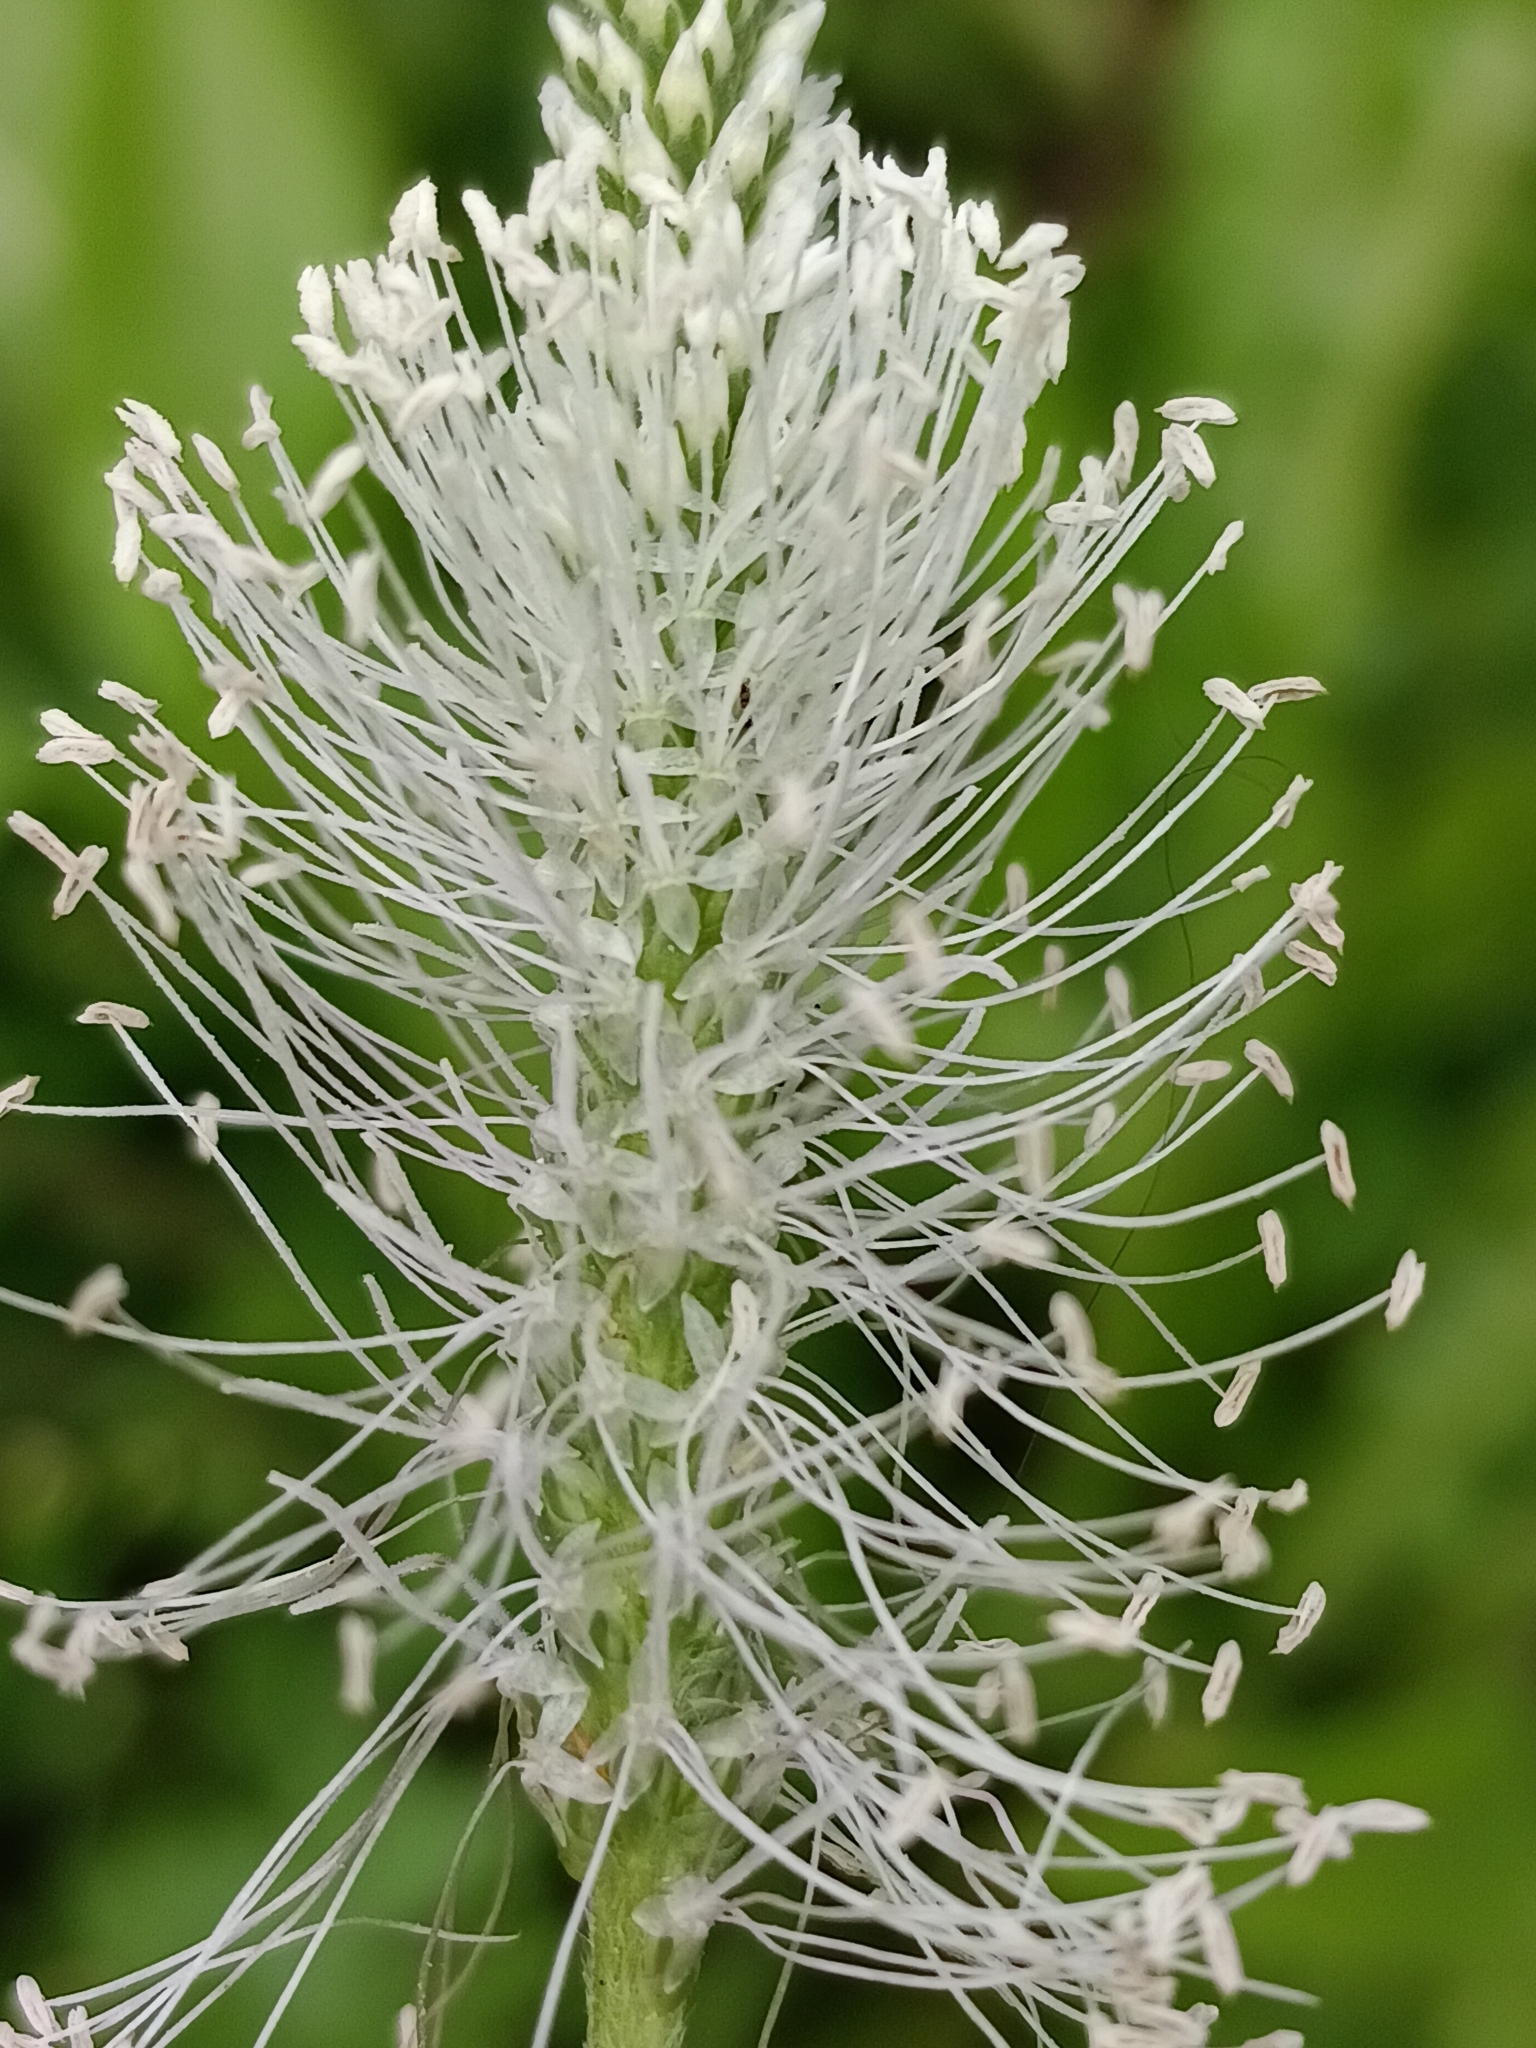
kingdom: Plantae
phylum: Tracheophyta
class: Magnoliopsida
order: Lamiales
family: Plantaginaceae
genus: Plantago
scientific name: Plantago media
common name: Hoary plantain
